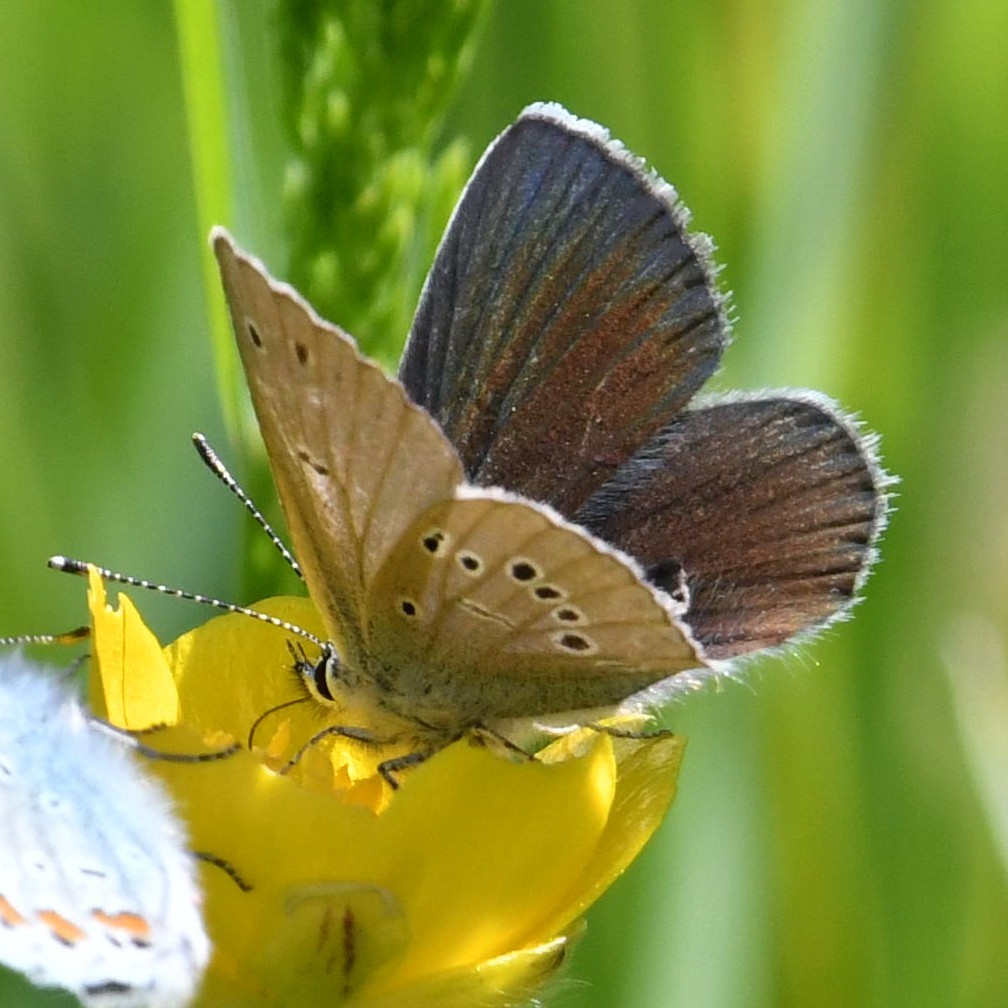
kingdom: Animalia
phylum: Arthropoda
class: Insecta
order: Lepidoptera
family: Lycaenidae
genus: Cyaniris
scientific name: Cyaniris semiargus
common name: Mazarine blue
